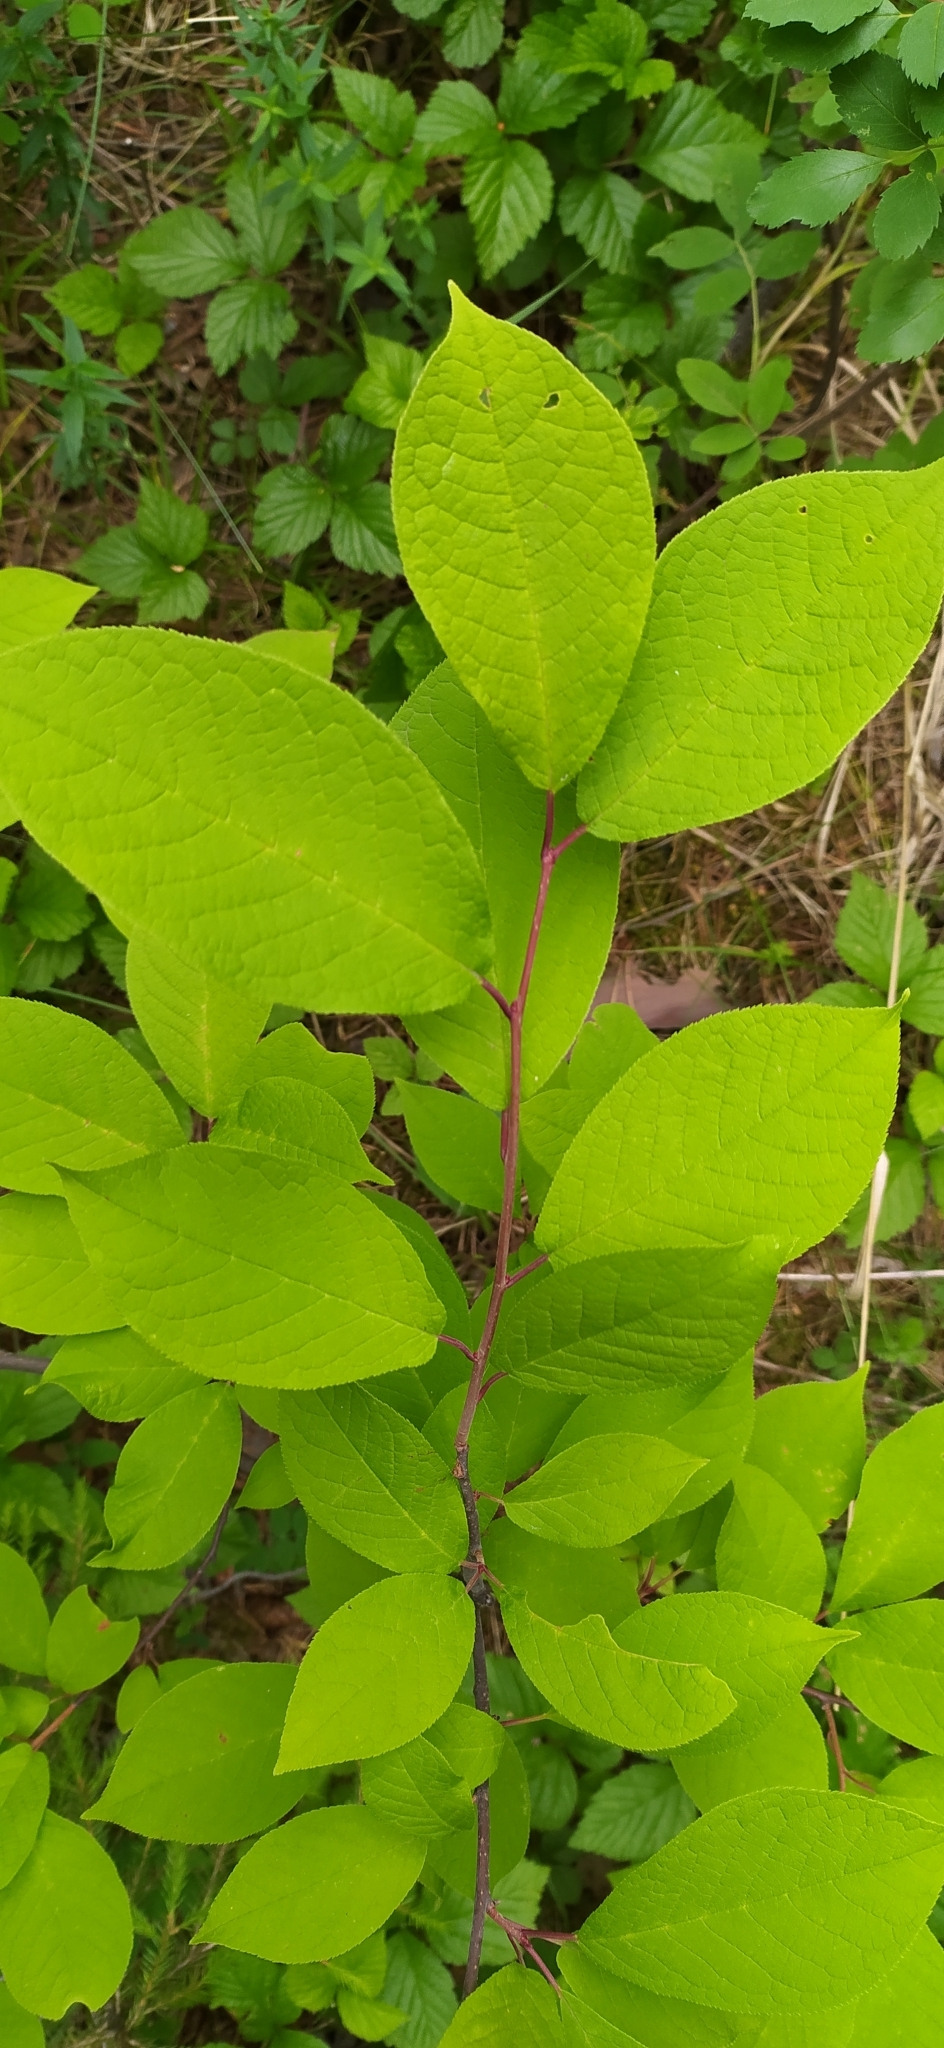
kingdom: Plantae
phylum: Tracheophyta
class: Magnoliopsida
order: Rosales
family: Rosaceae
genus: Prunus
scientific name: Prunus padus
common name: Bird cherry
